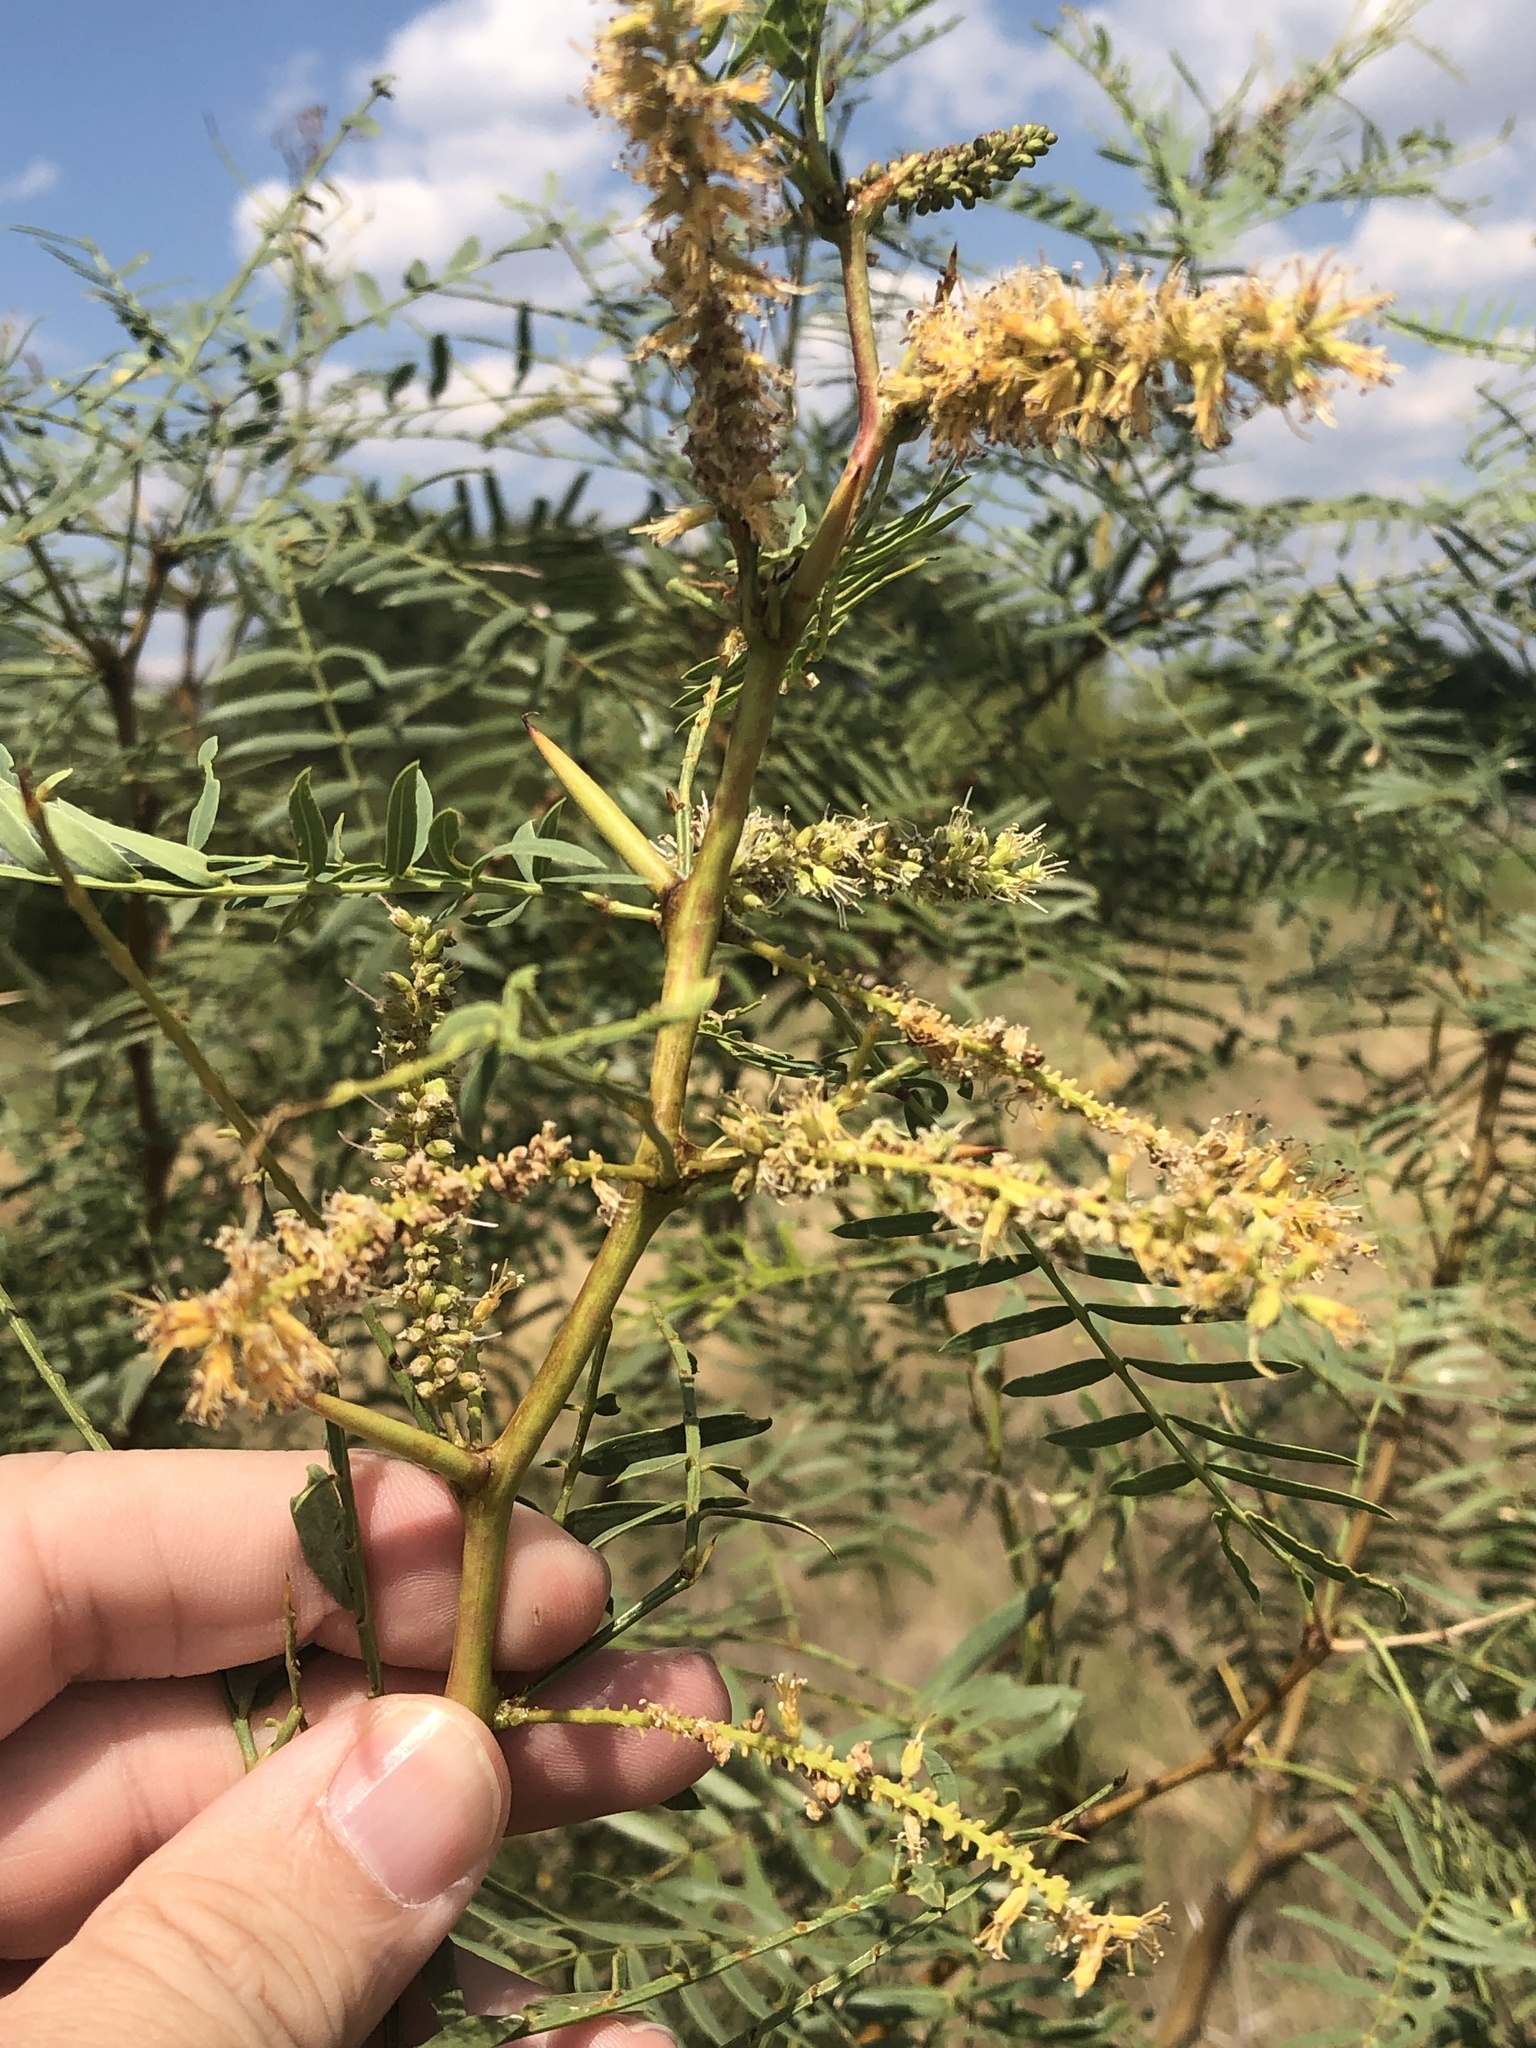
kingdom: Plantae
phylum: Tracheophyta
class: Magnoliopsida
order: Fabales
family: Fabaceae
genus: Prosopis
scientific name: Prosopis glandulosa
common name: Honey mesquite
